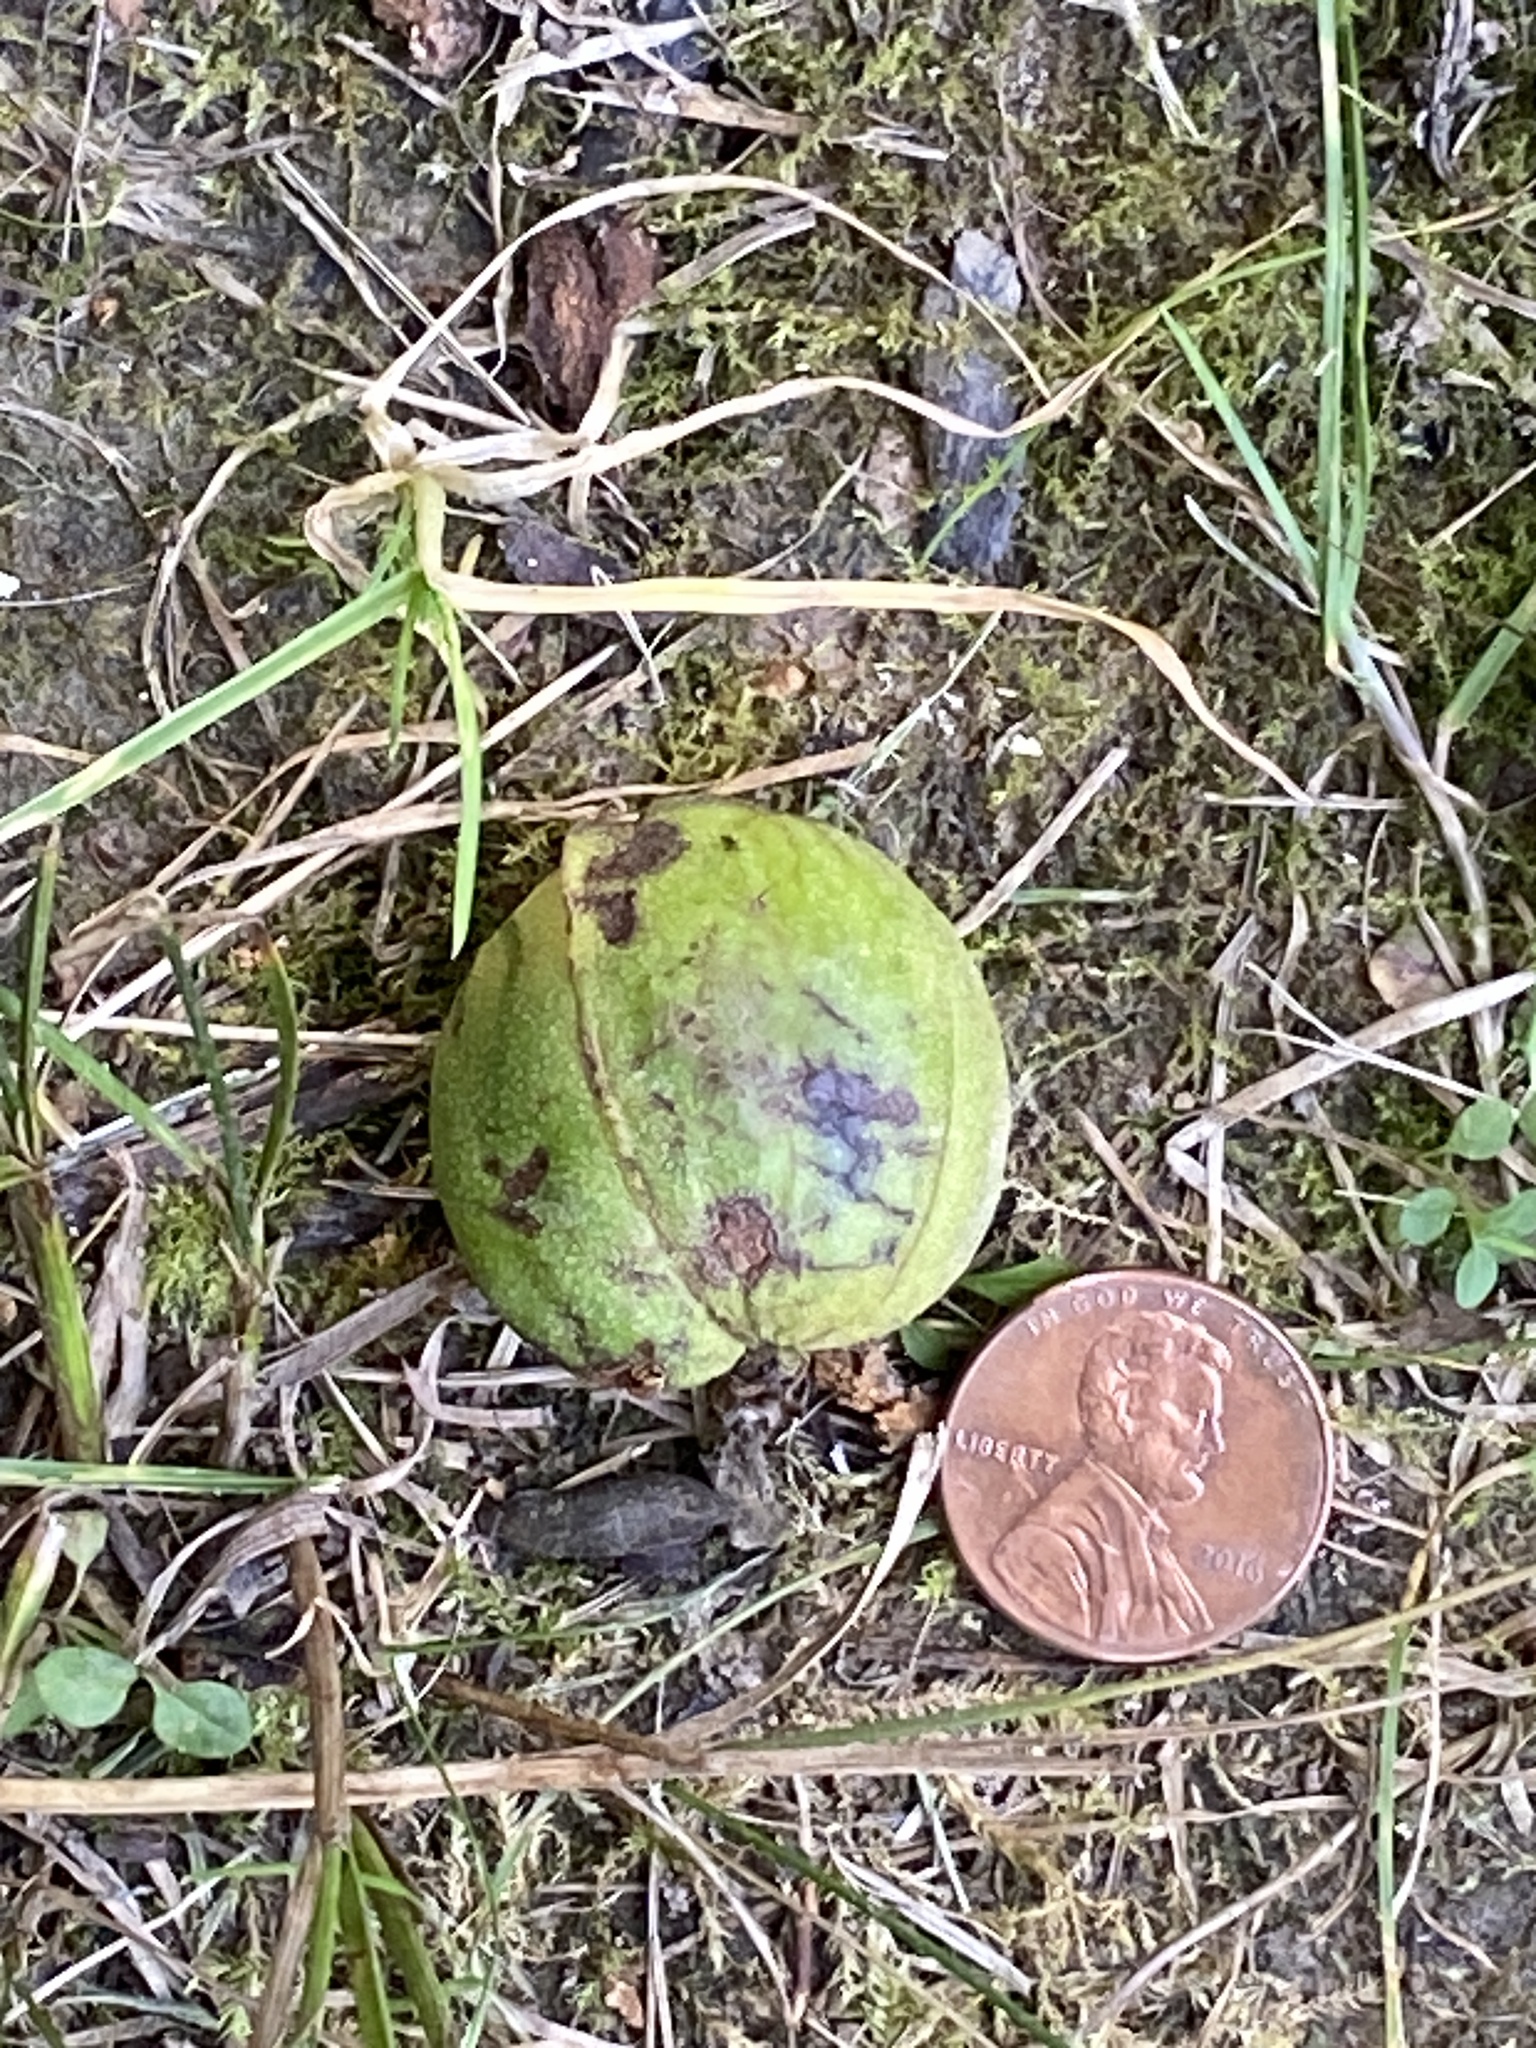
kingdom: Plantae
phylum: Tracheophyta
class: Magnoliopsida
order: Fagales
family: Juglandaceae
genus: Carya
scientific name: Carya cordiformis
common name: Bitternut hickory
